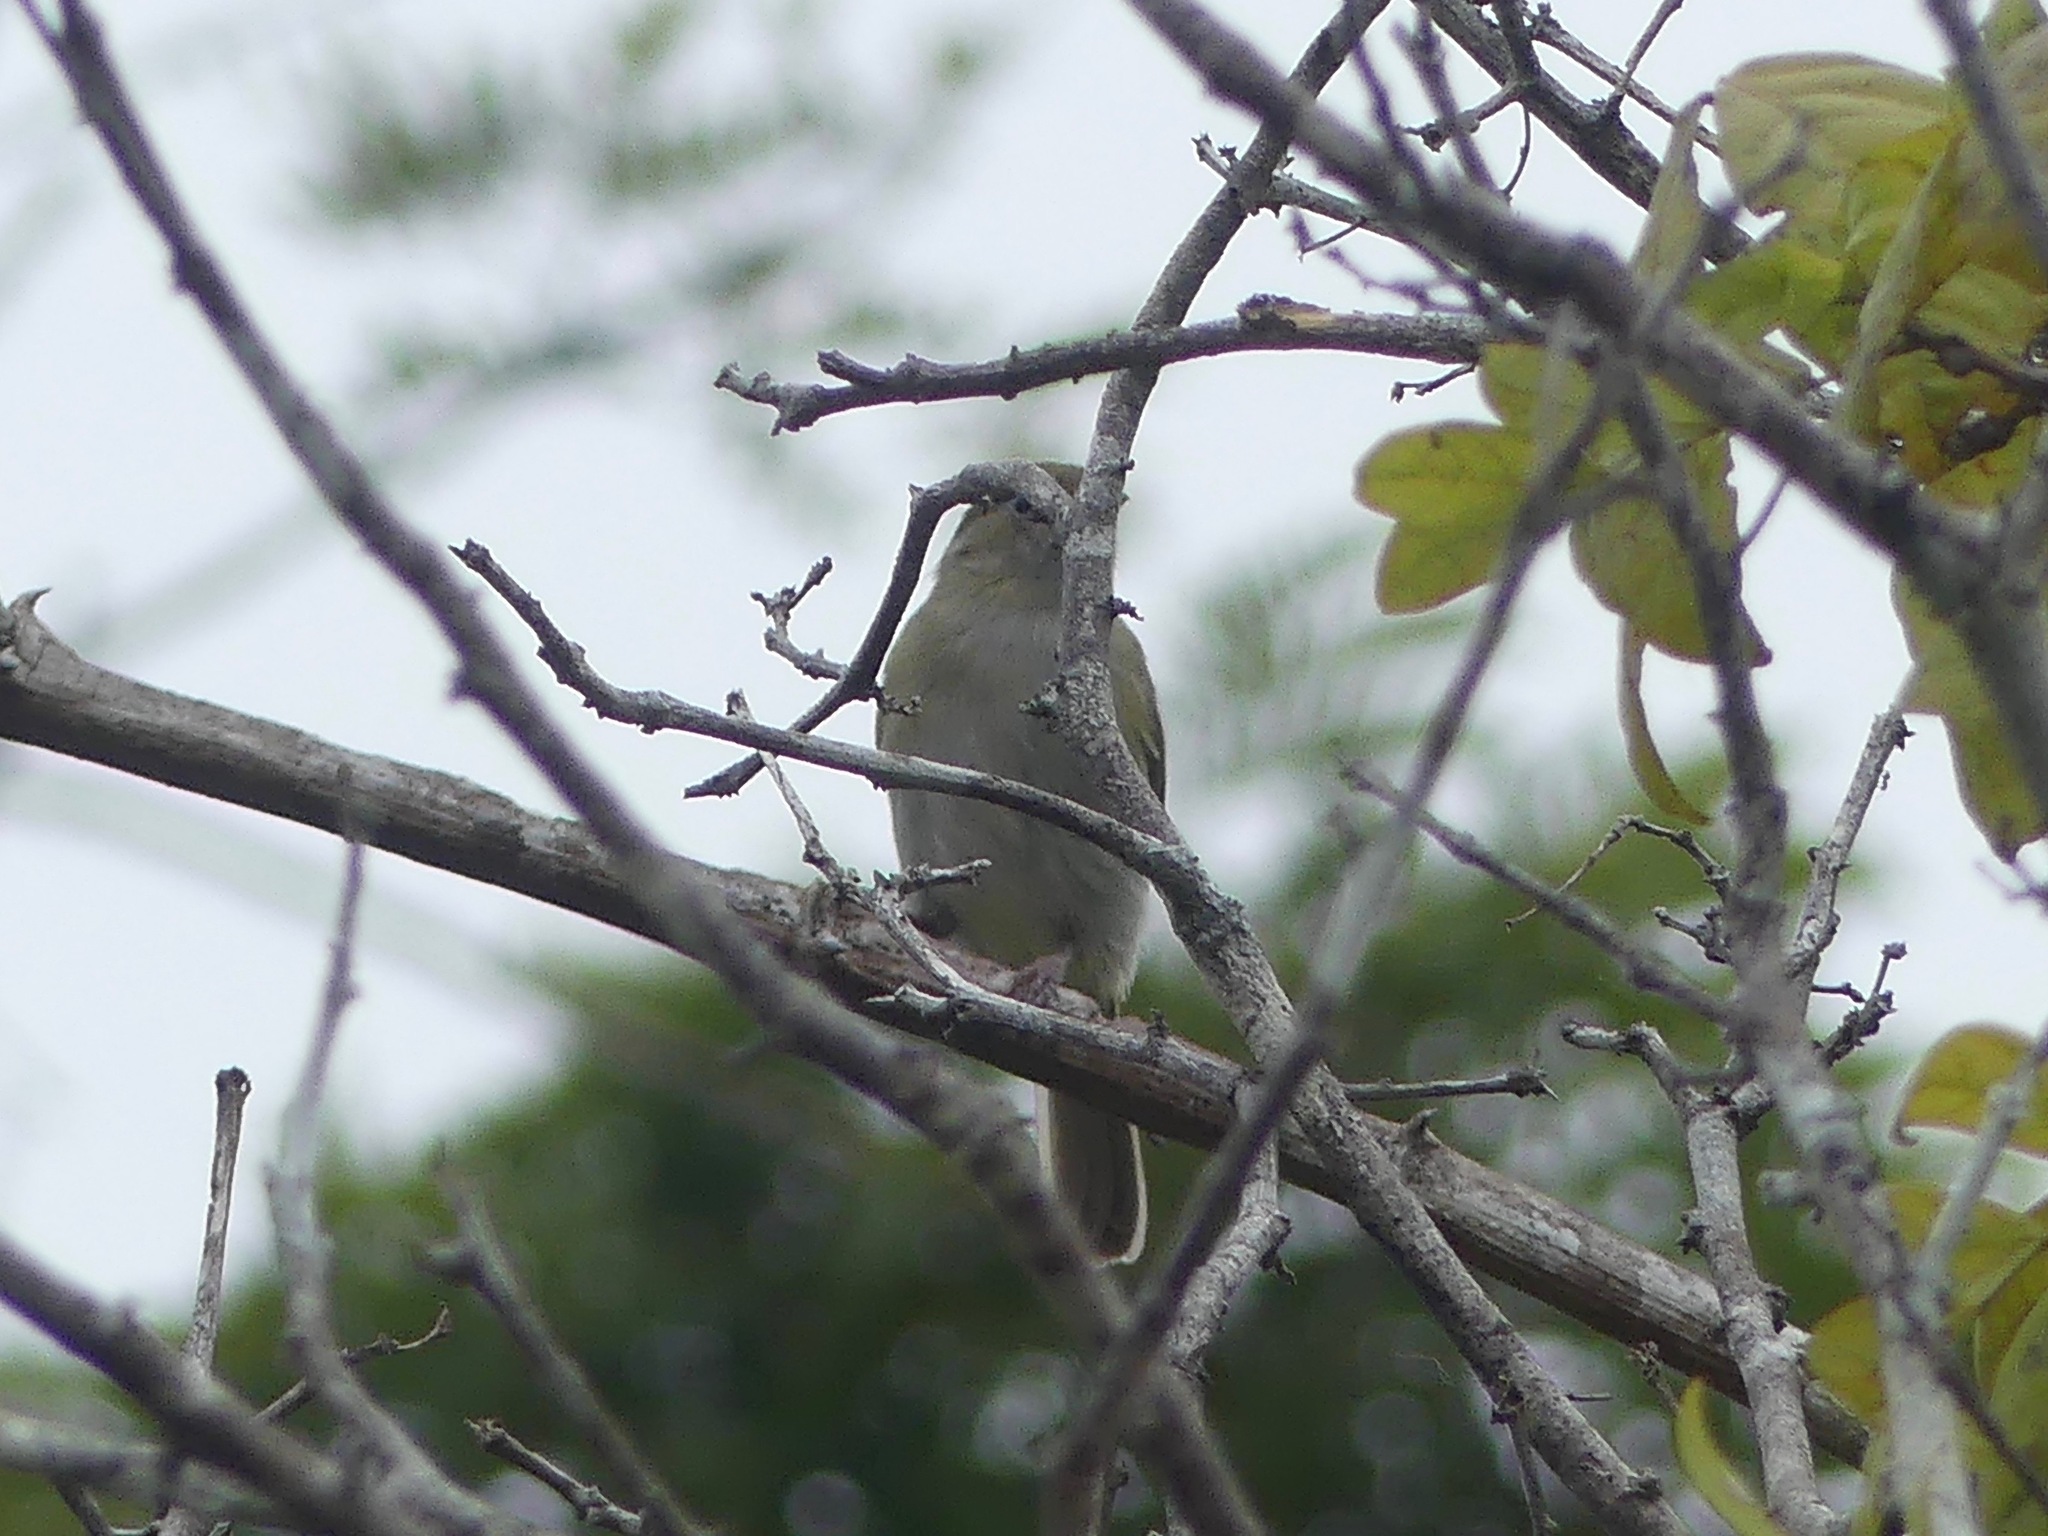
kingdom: Animalia
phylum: Chordata
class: Aves
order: Passeriformes
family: Vireonidae
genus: Hylophilus
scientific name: Hylophilus semicinereus
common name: Grey-chested greenlet
